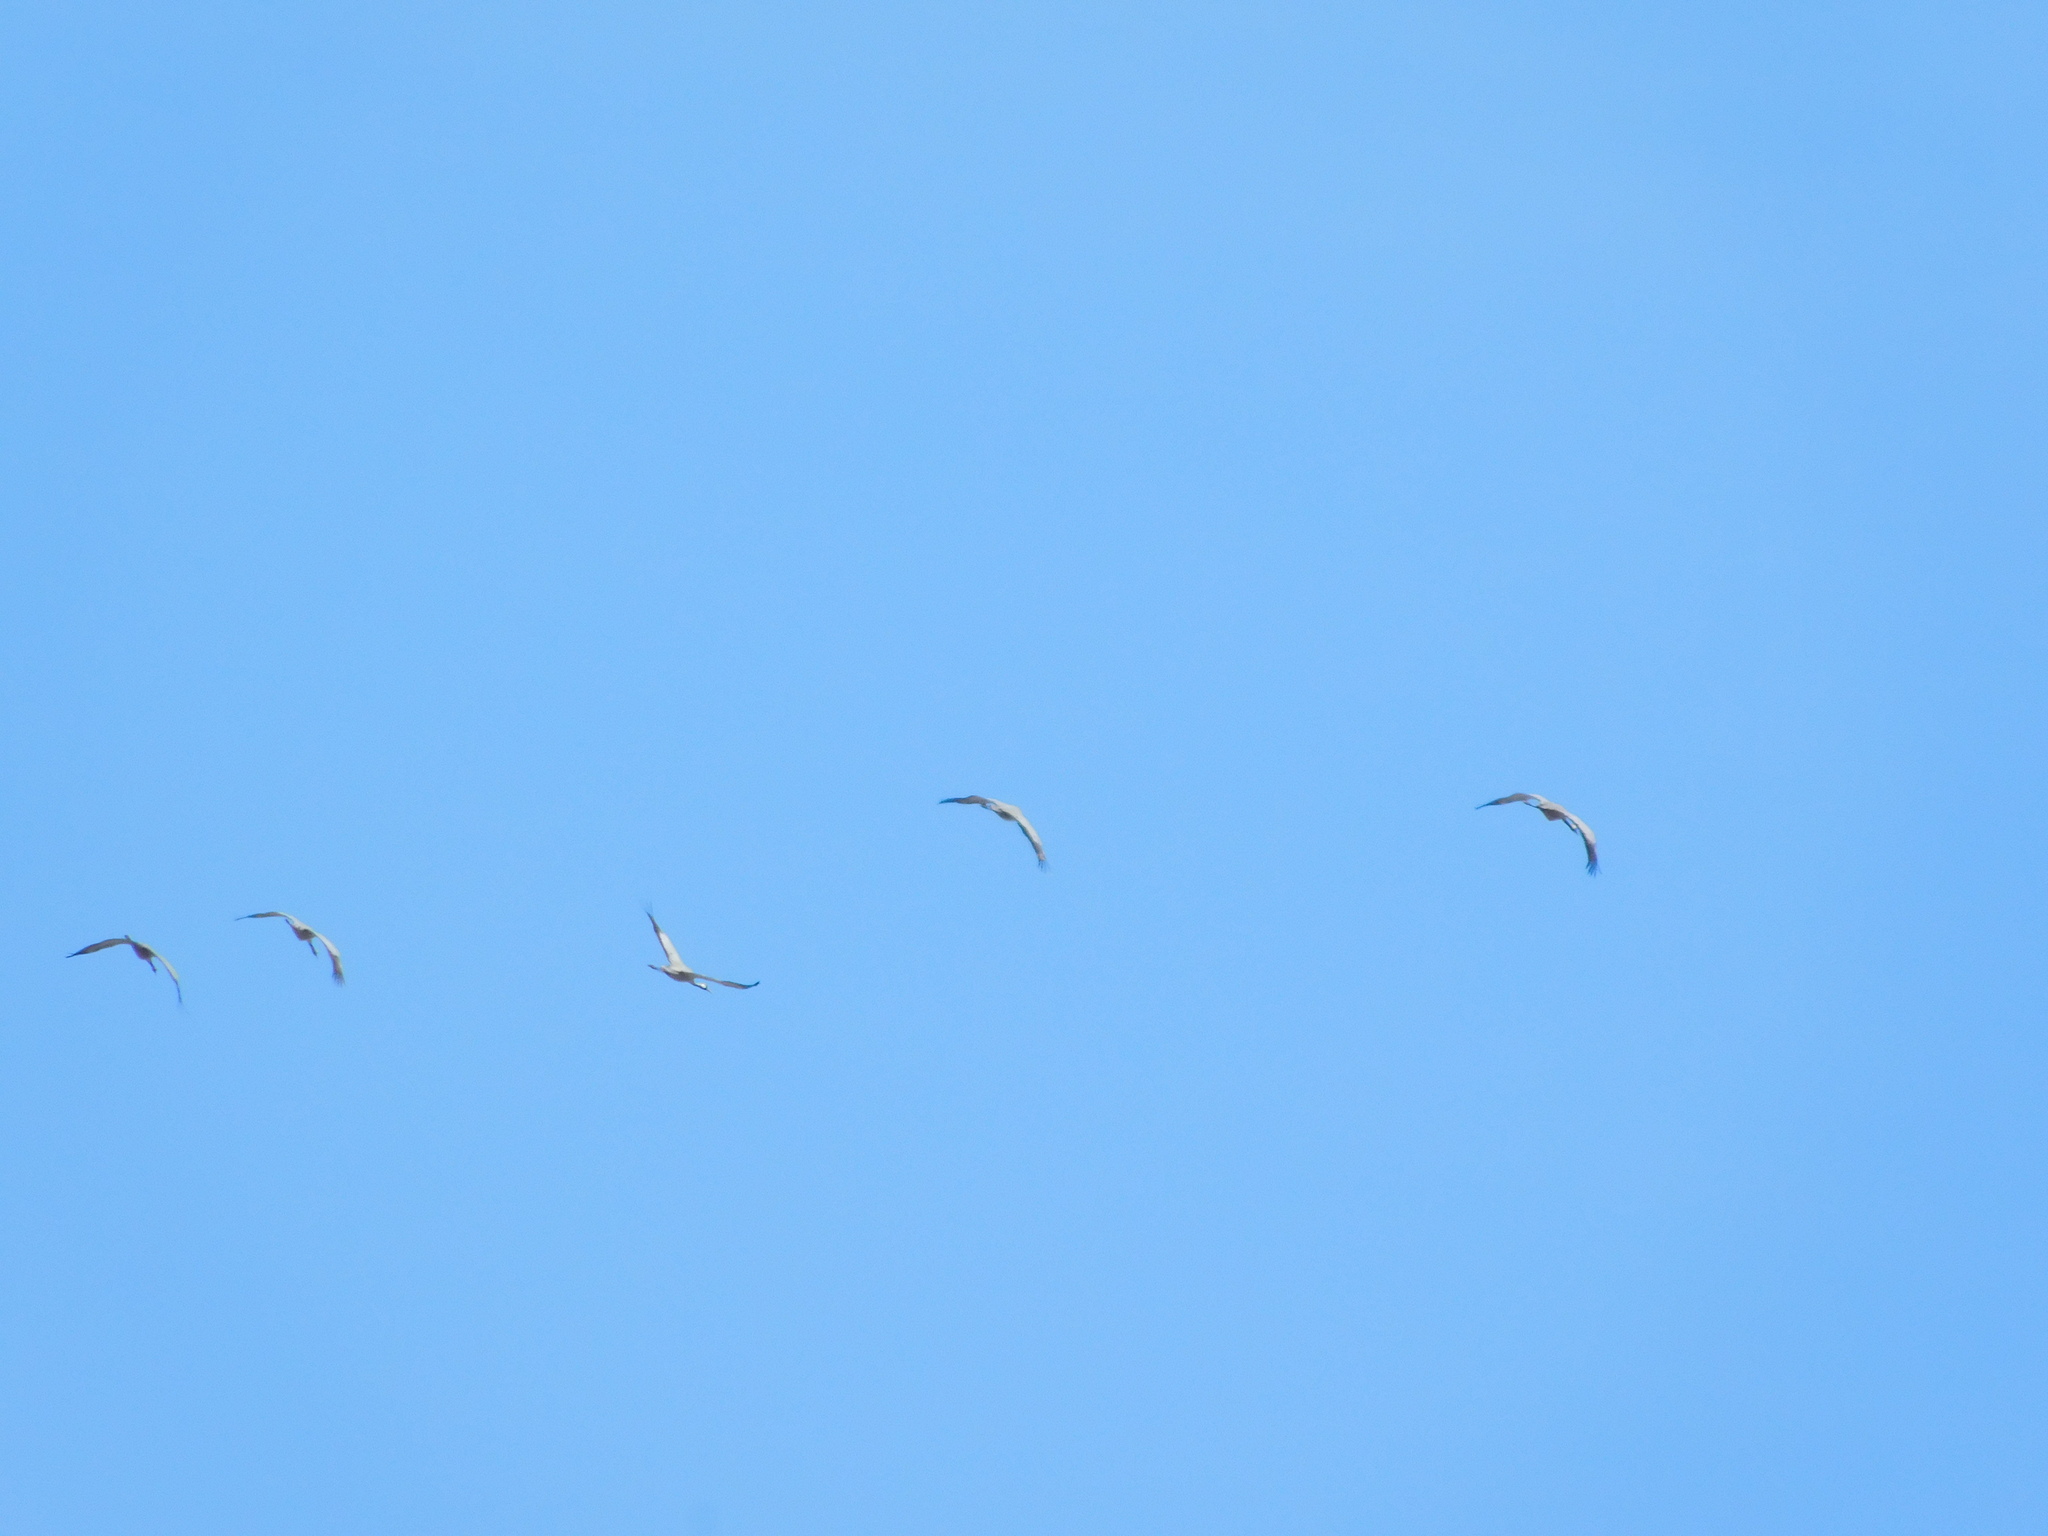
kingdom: Animalia
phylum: Chordata
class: Aves
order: Gruiformes
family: Gruidae
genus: Grus
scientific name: Grus grus
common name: Common crane
